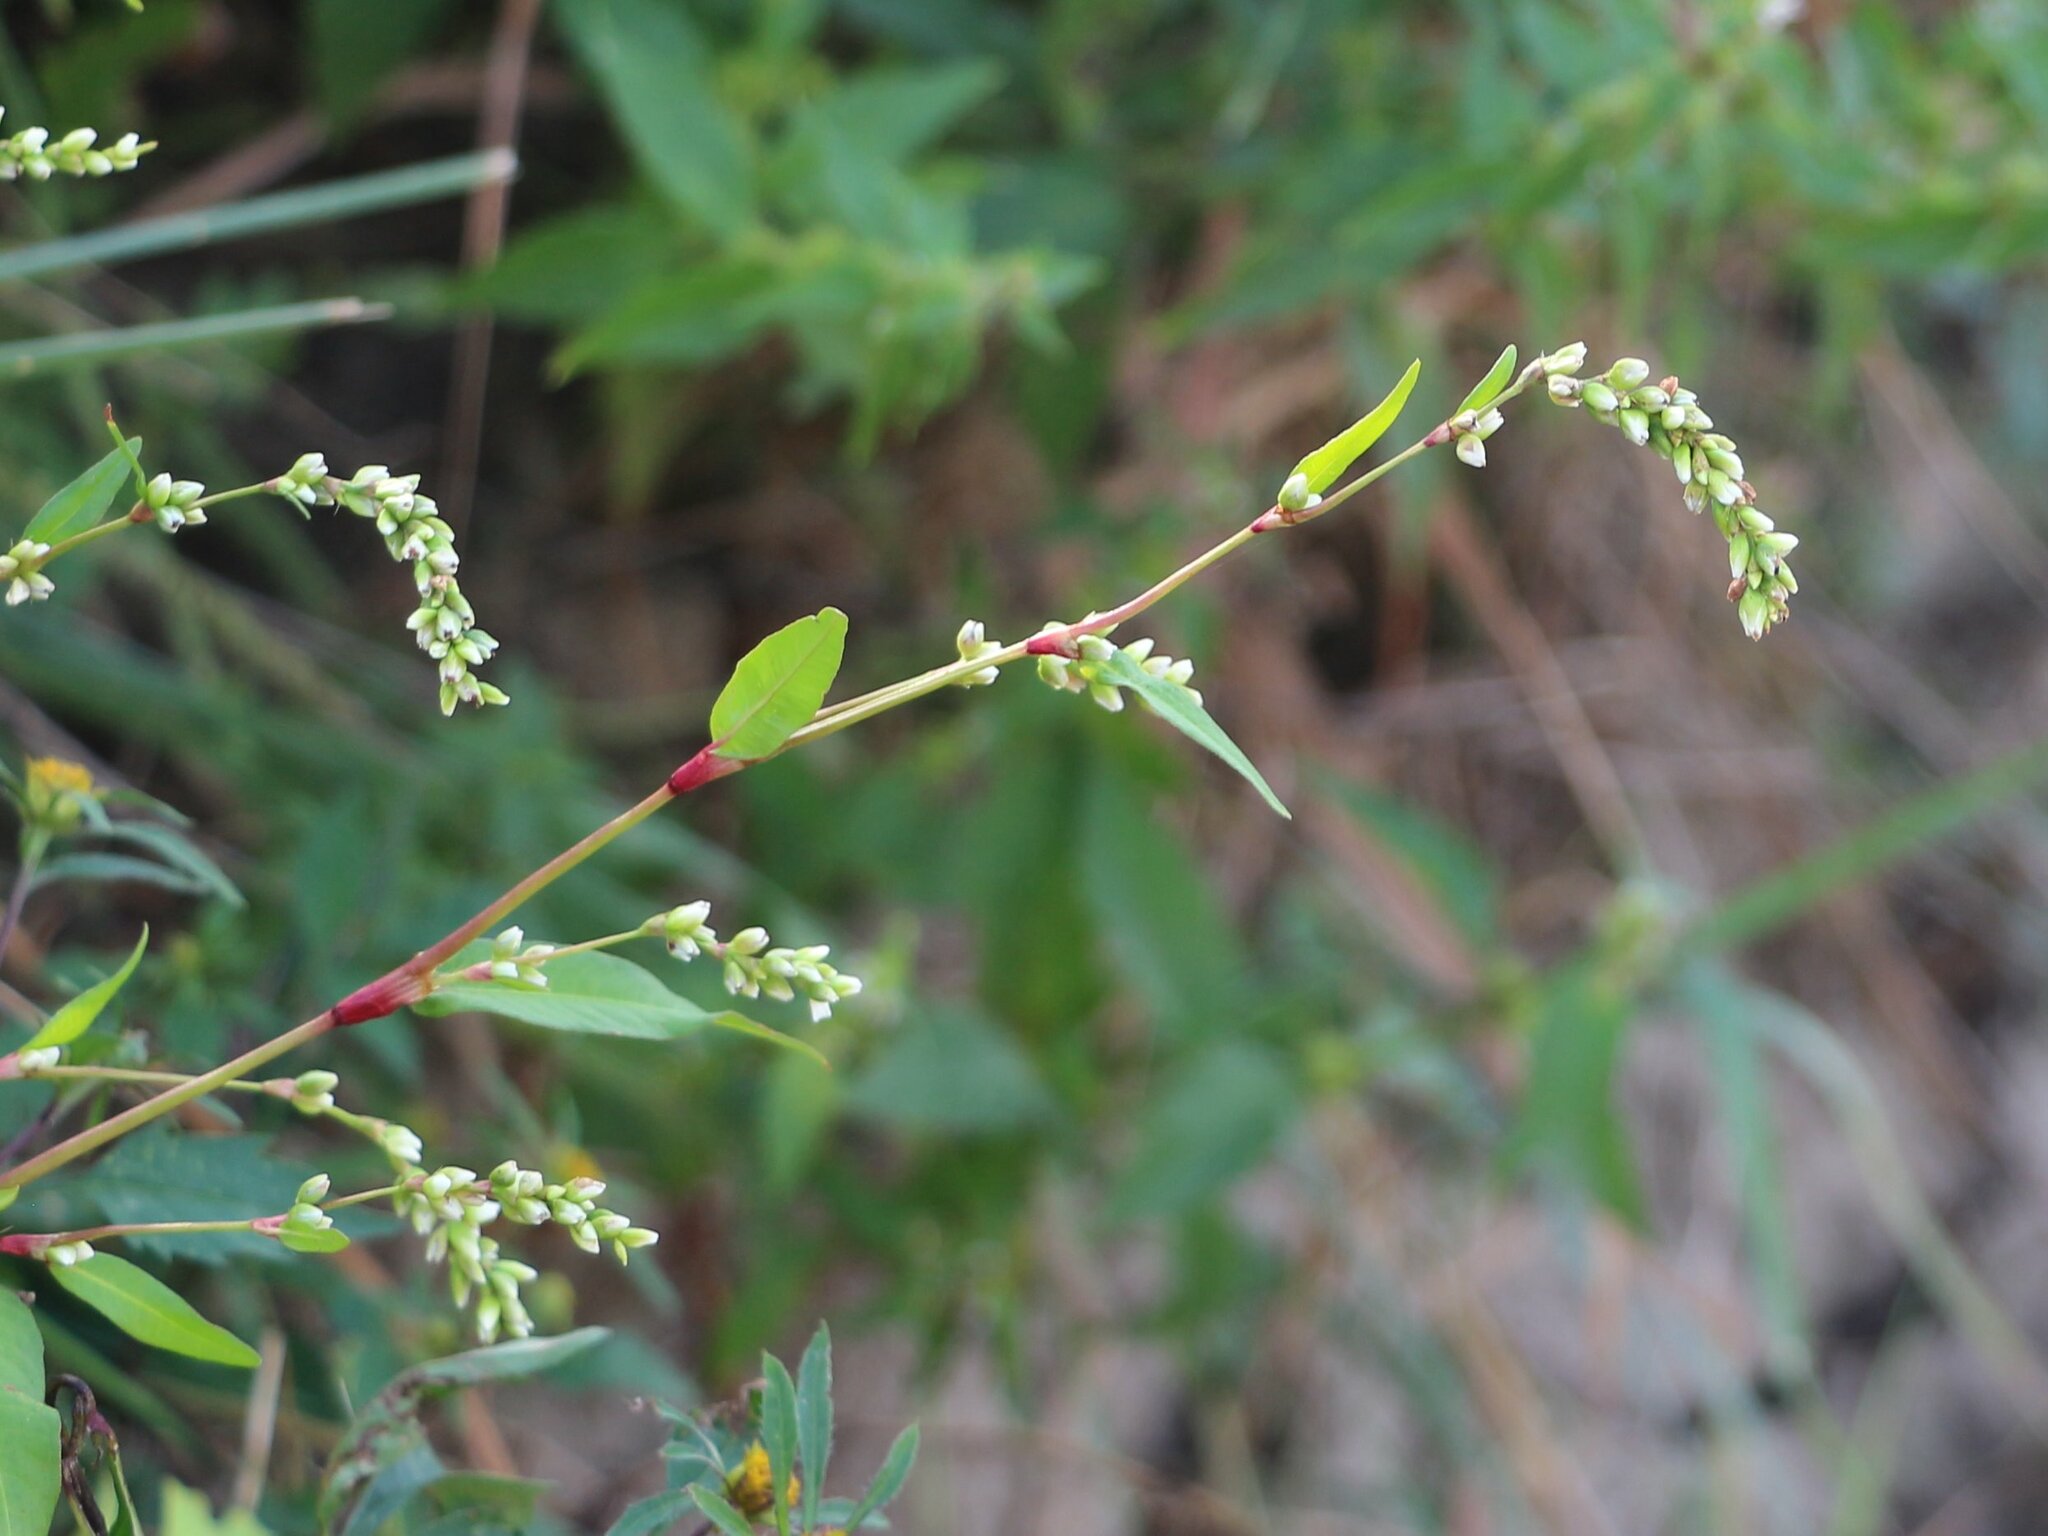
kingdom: Plantae
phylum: Tracheophyta
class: Magnoliopsida
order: Caryophyllales
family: Polygonaceae
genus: Persicaria
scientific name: Persicaria hydropiper
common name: Water-pepper
